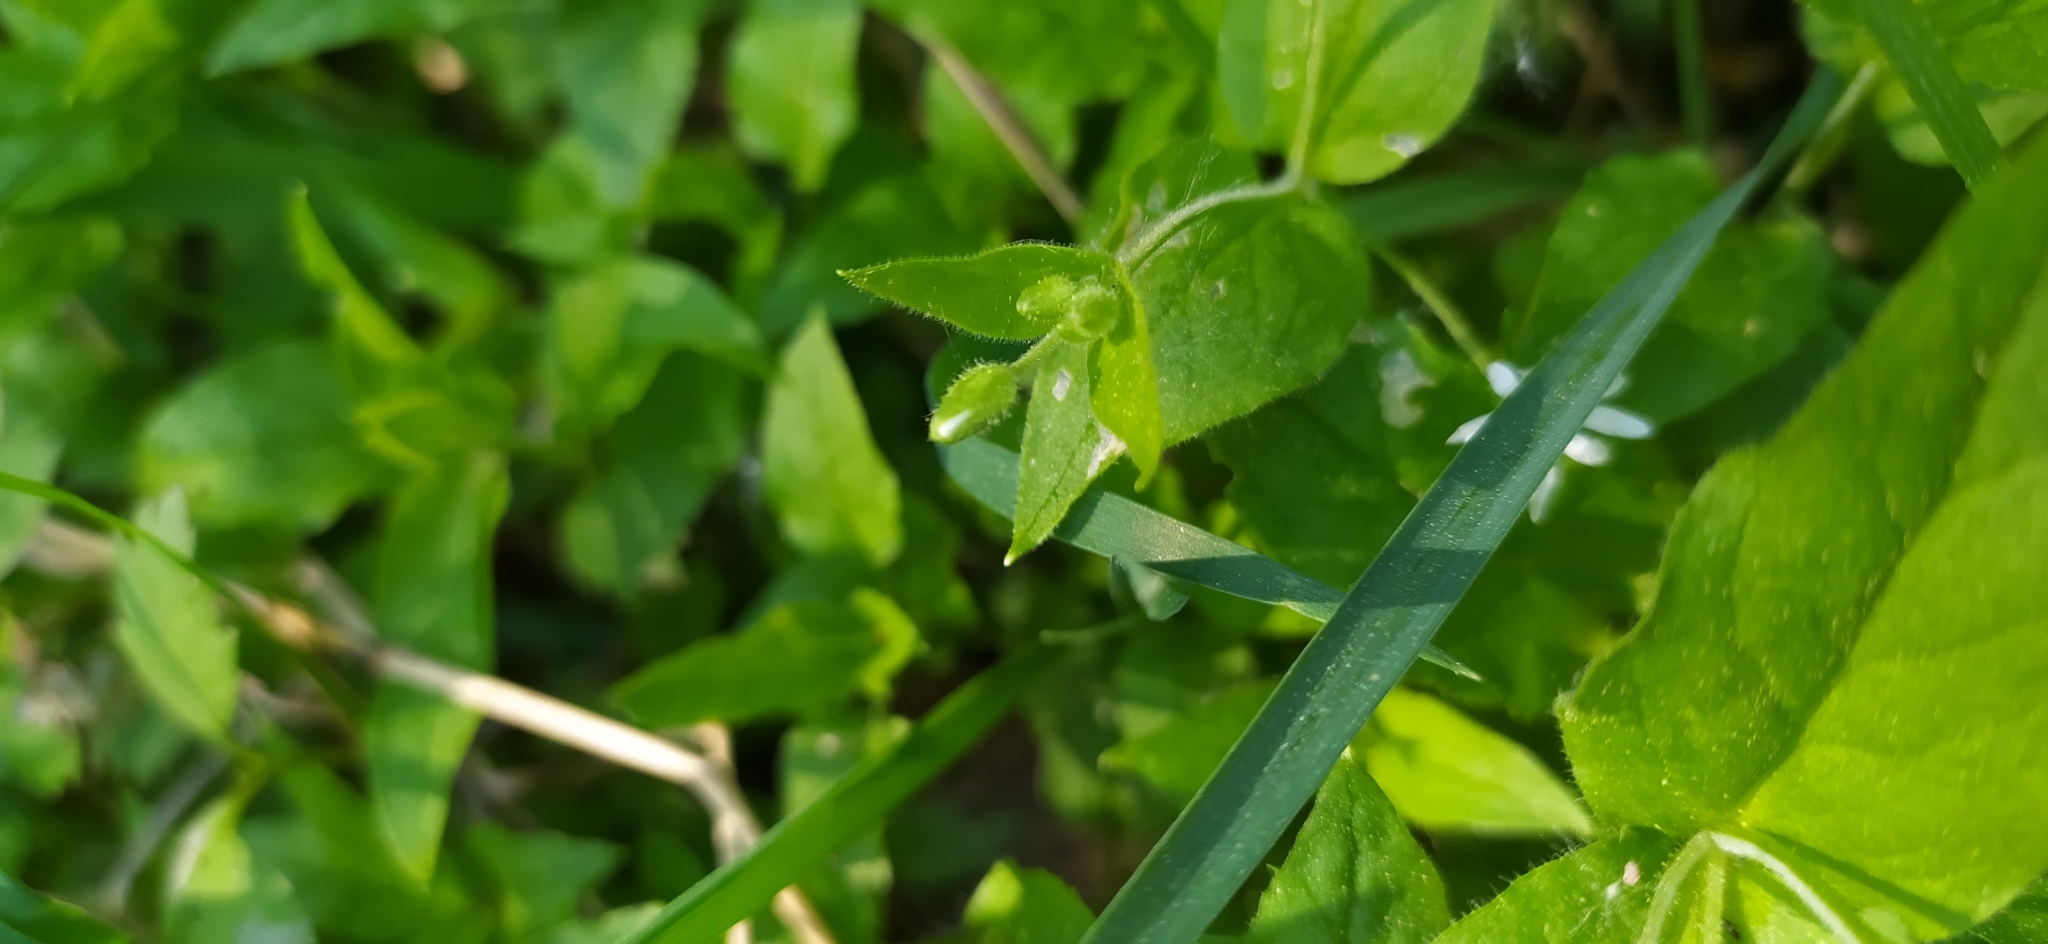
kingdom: Plantae
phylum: Tracheophyta
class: Magnoliopsida
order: Caryophyllales
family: Caryophyllaceae
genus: Stellaria
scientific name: Stellaria bungeana
